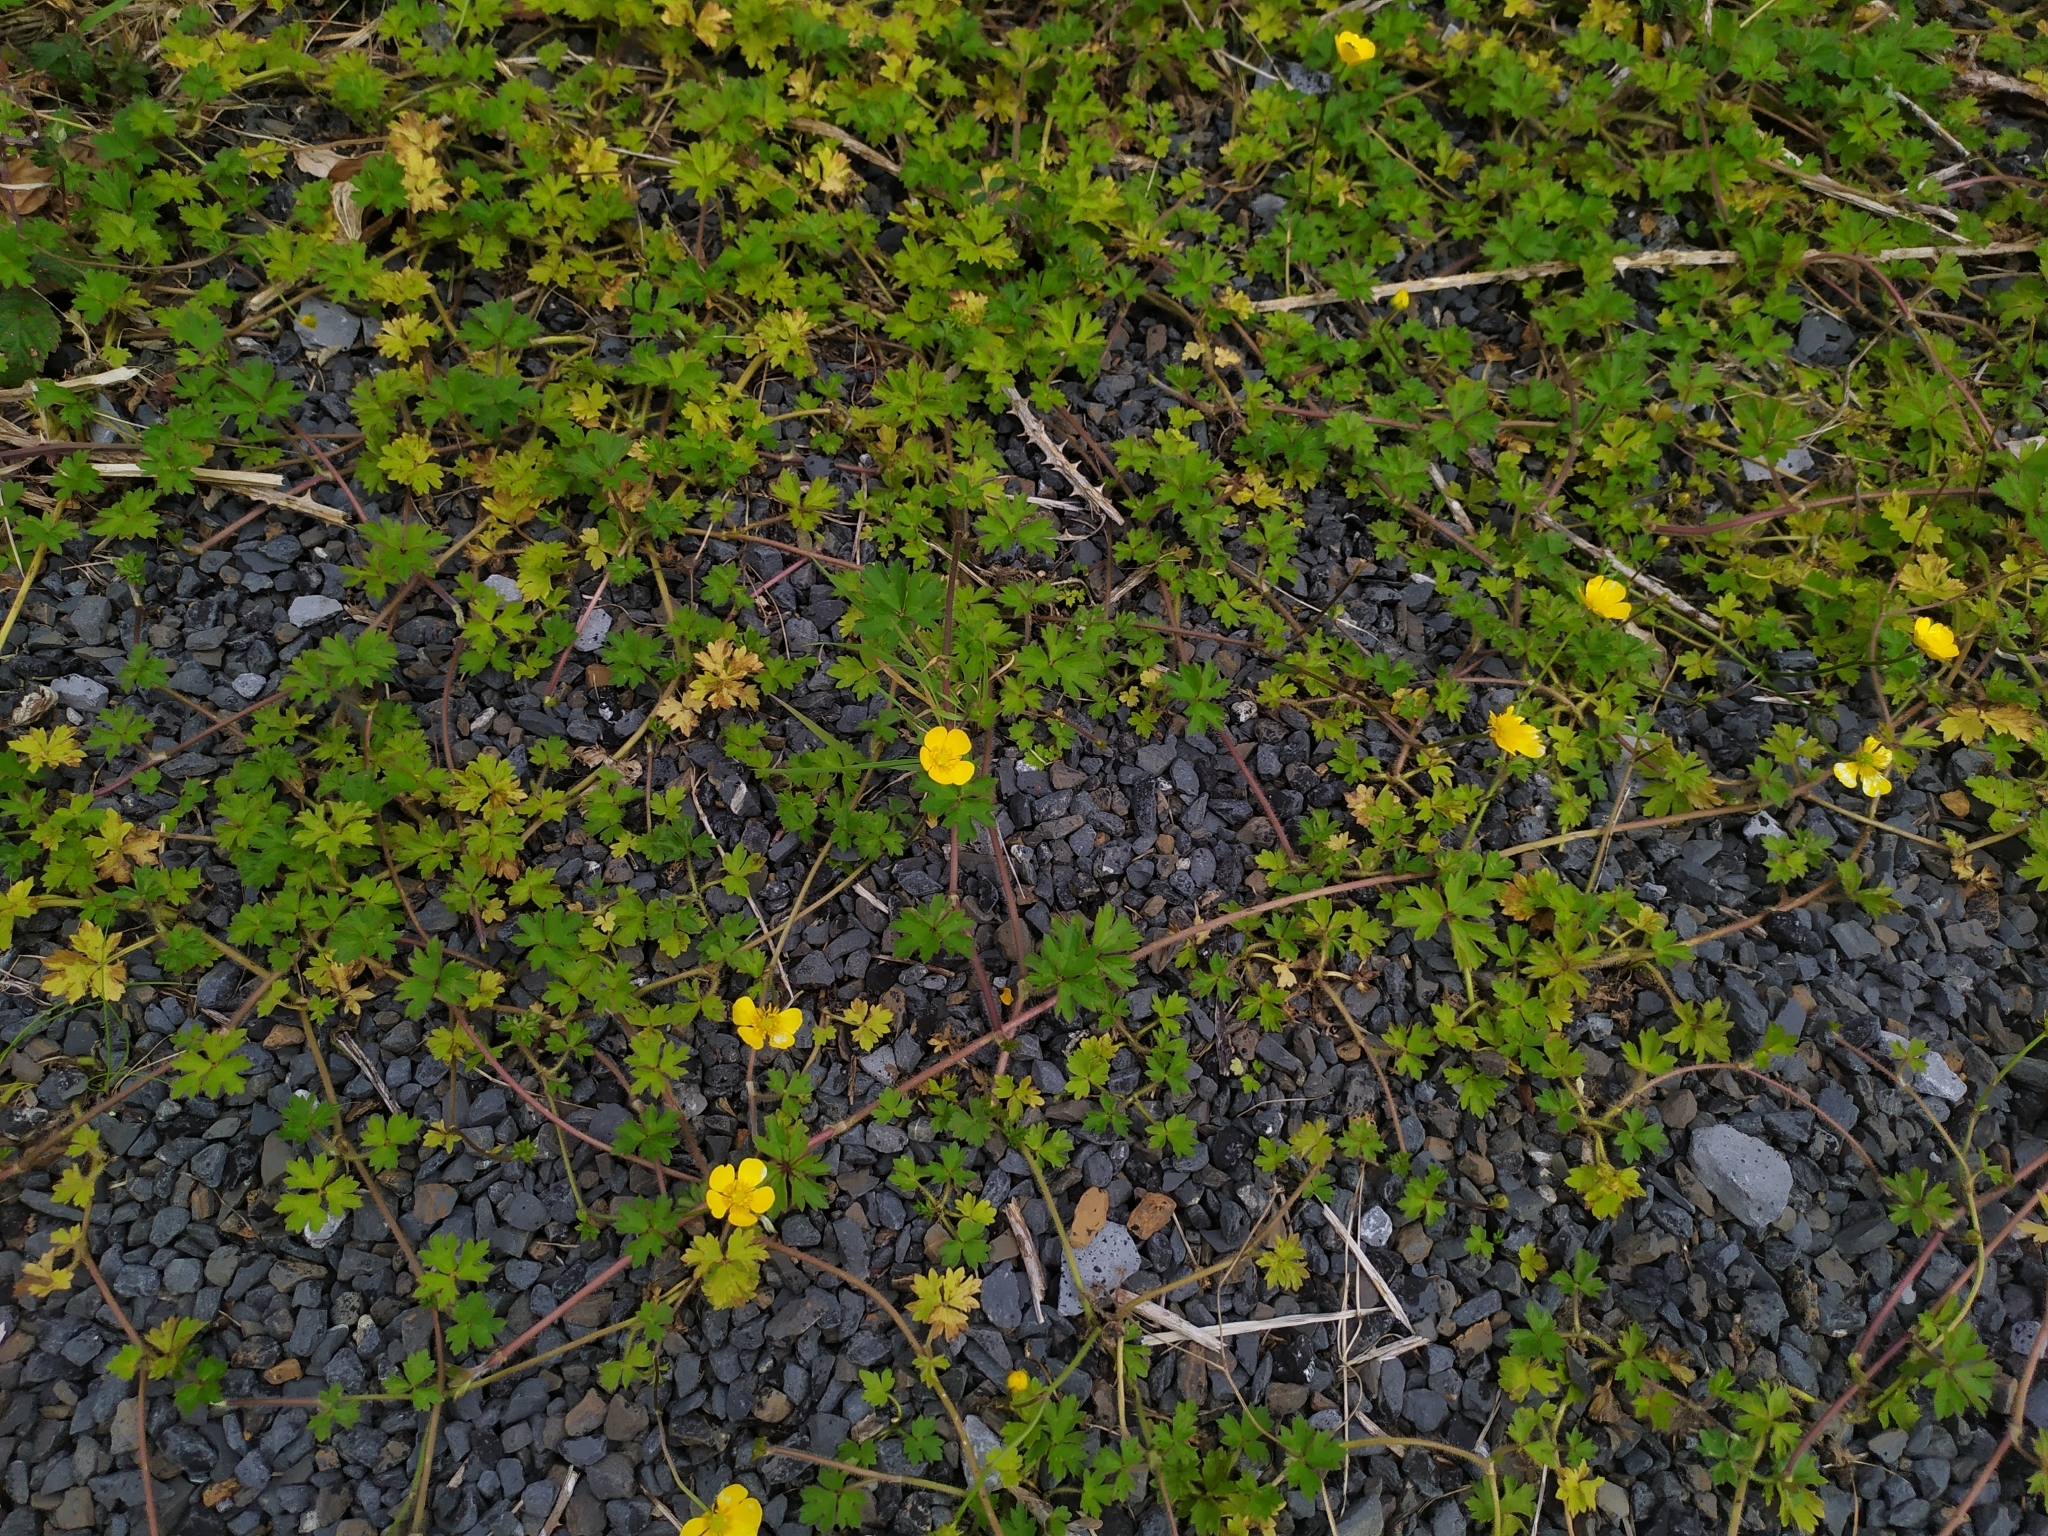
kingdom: Plantae
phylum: Tracheophyta
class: Magnoliopsida
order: Rosales
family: Rosaceae
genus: Potentilla
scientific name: Potentilla reptans
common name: Creeping cinquefoil
